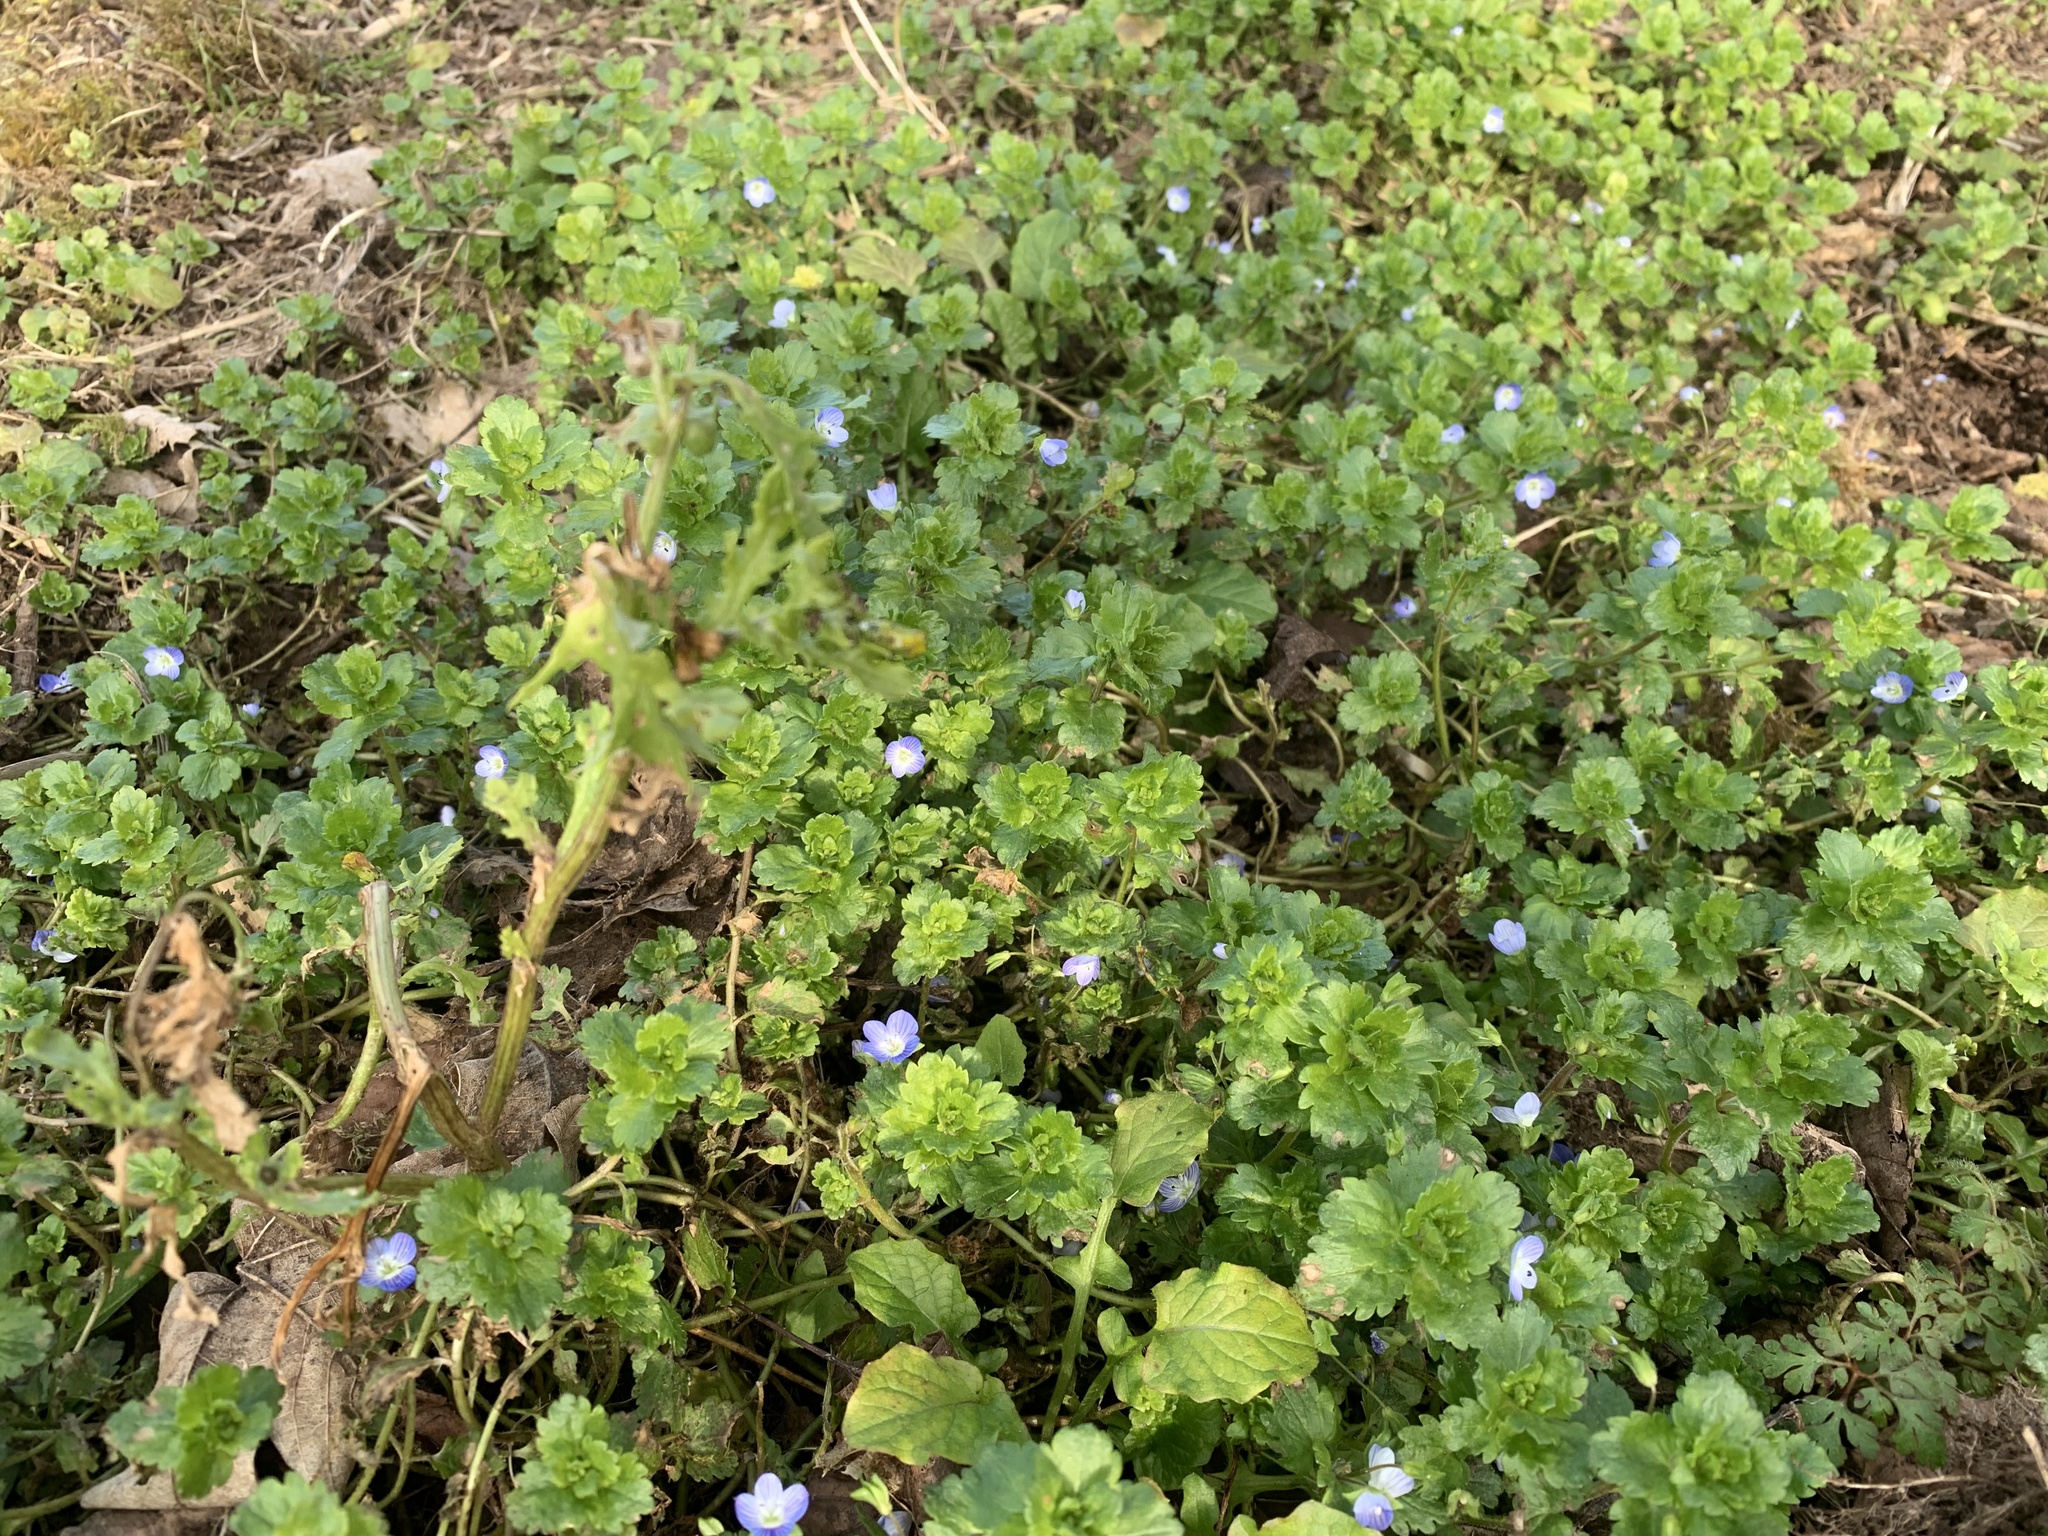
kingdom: Plantae
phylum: Tracheophyta
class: Magnoliopsida
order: Lamiales
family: Plantaginaceae
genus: Veronica
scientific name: Veronica persica
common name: Common field-speedwell
